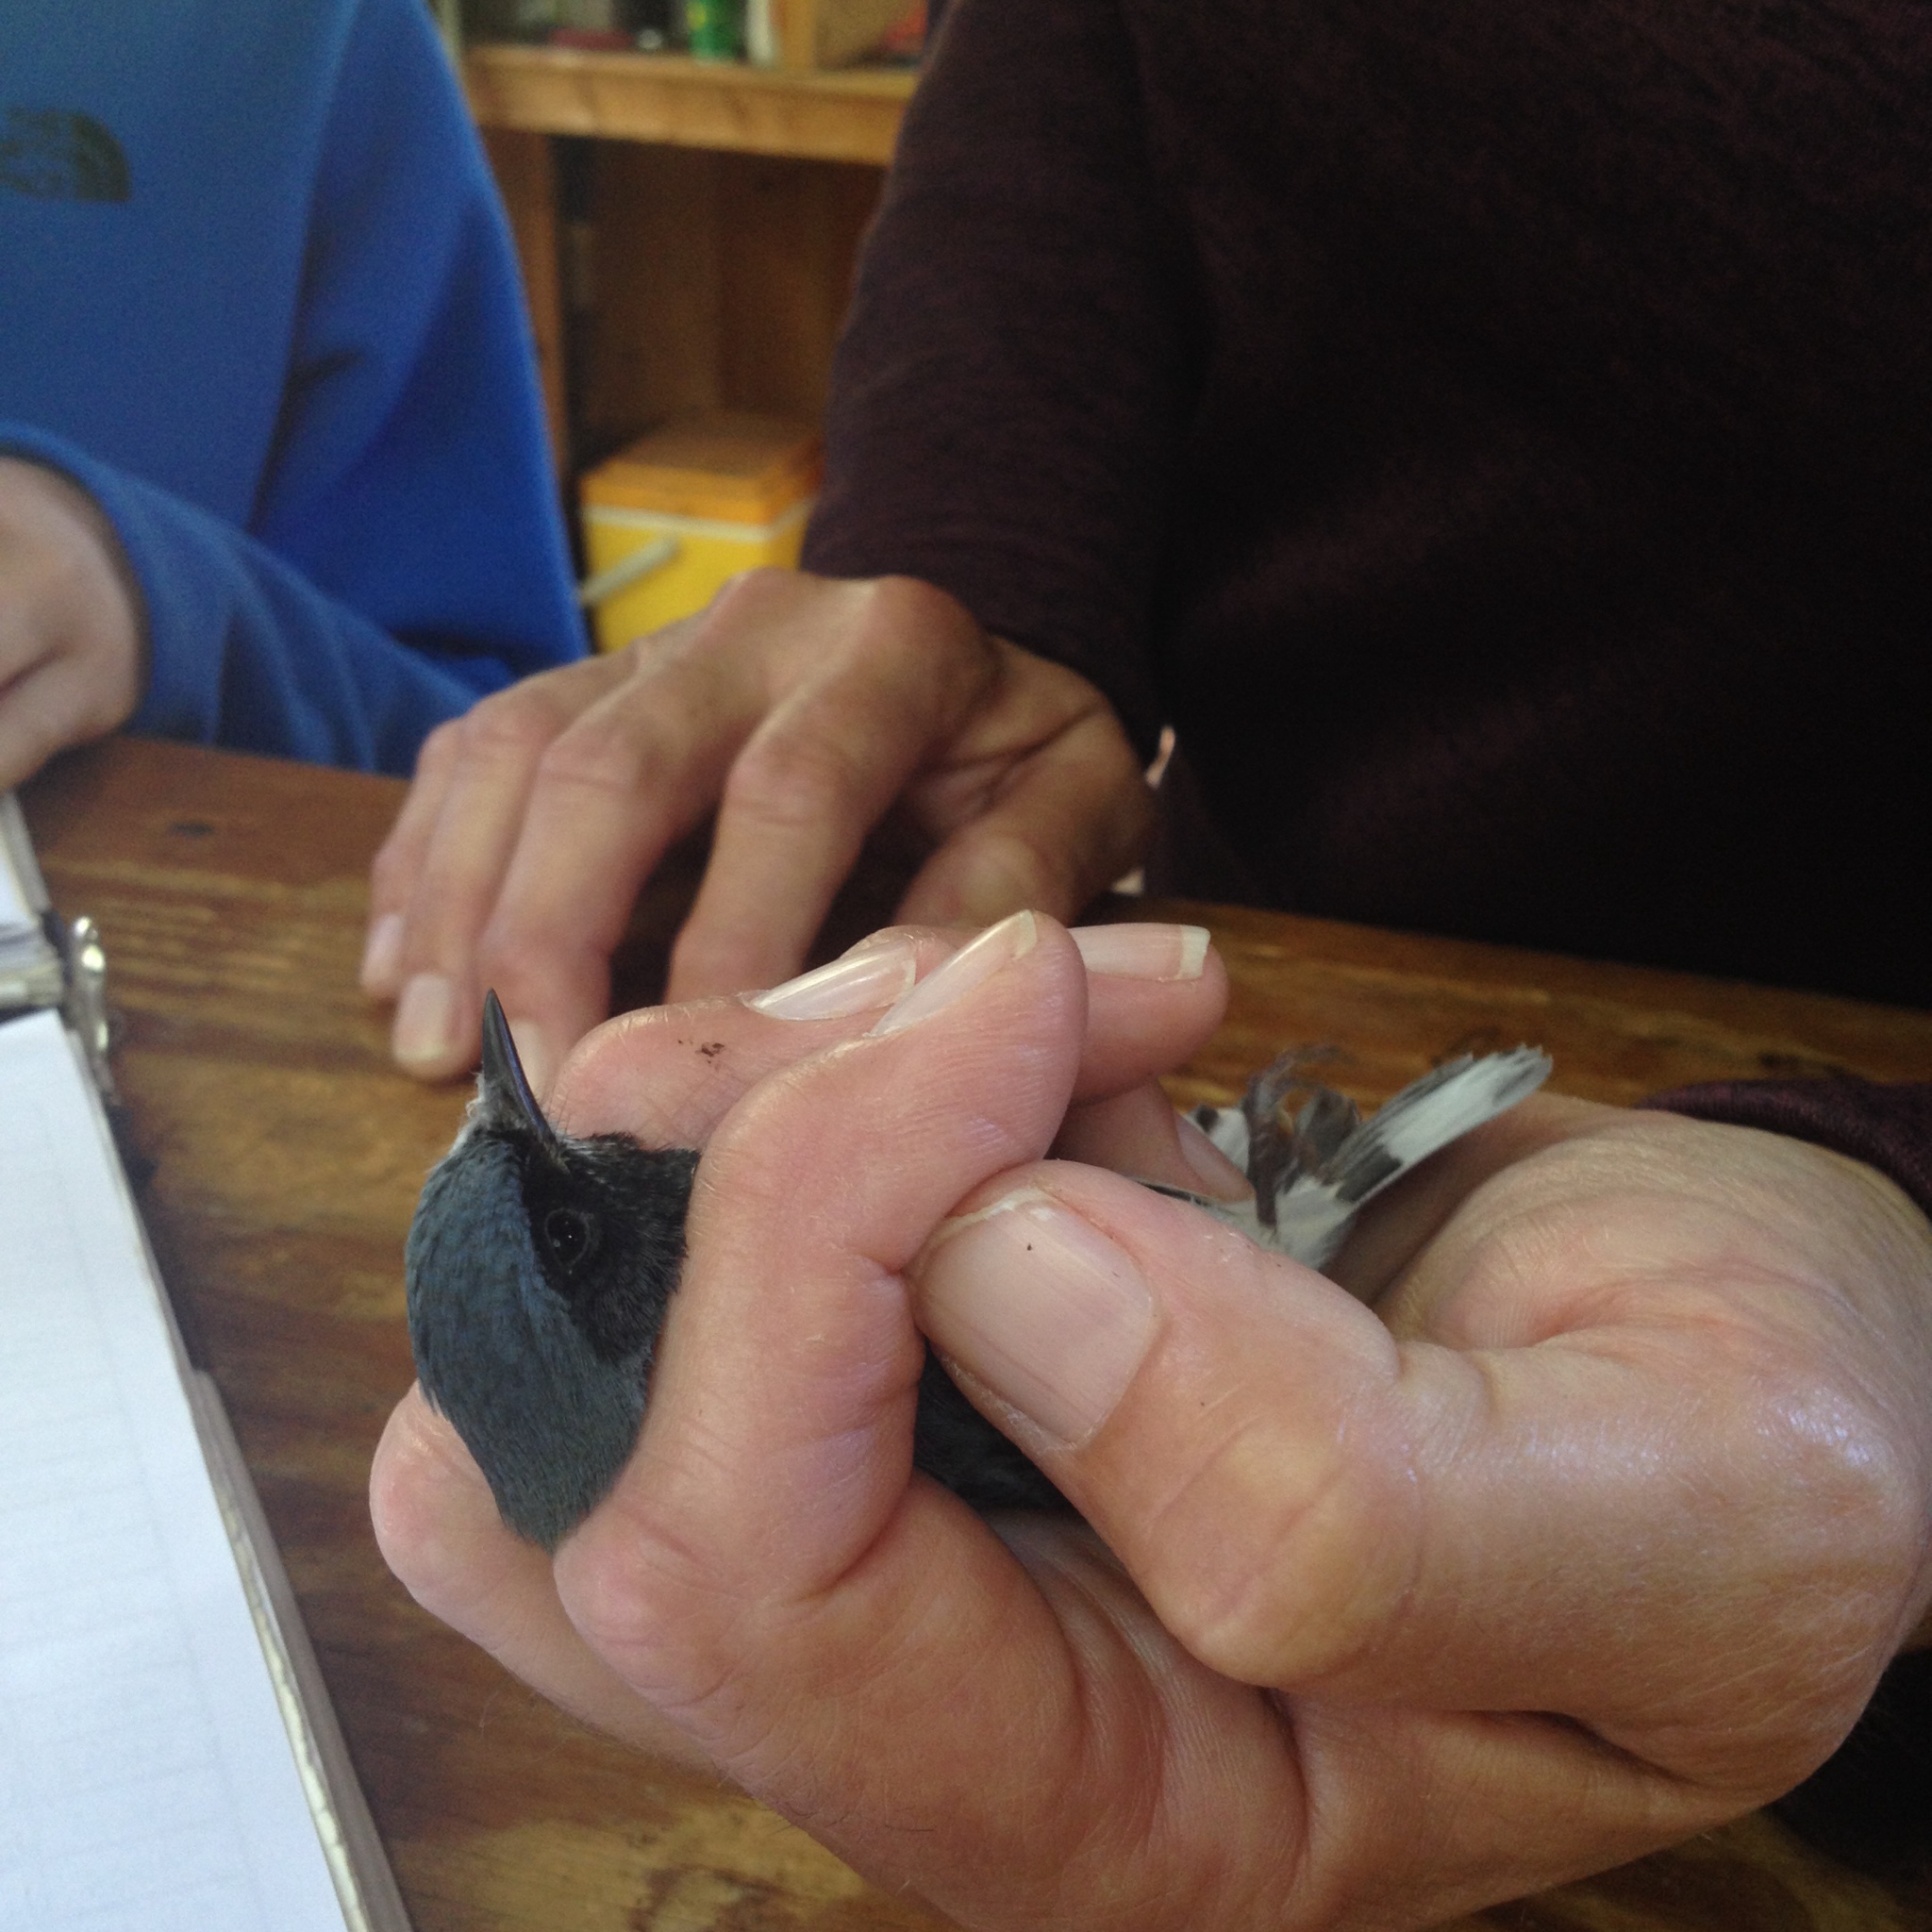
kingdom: Animalia
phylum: Chordata
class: Aves
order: Passeriformes
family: Parulidae
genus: Setophaga
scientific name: Setophaga caerulescens
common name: Black-throated blue warbler
